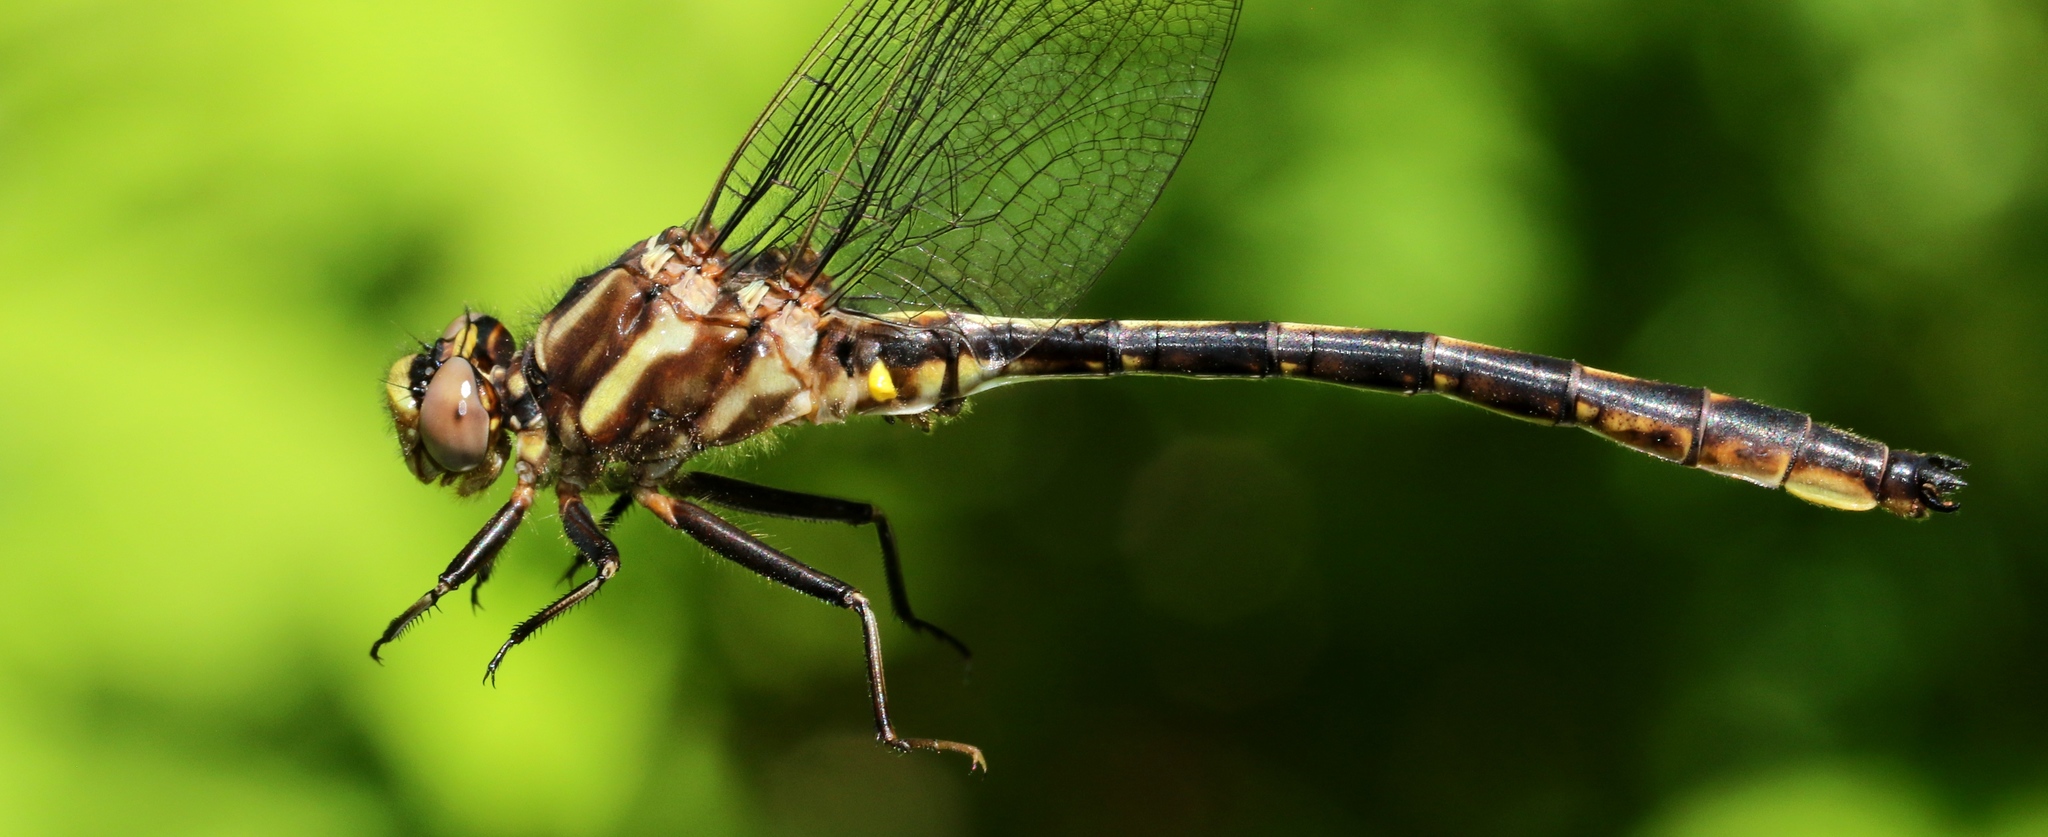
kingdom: Animalia
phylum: Arthropoda
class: Insecta
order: Odonata
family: Gomphidae
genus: Phanogomphus
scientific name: Phanogomphus spicatus
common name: Dusky clubtail
